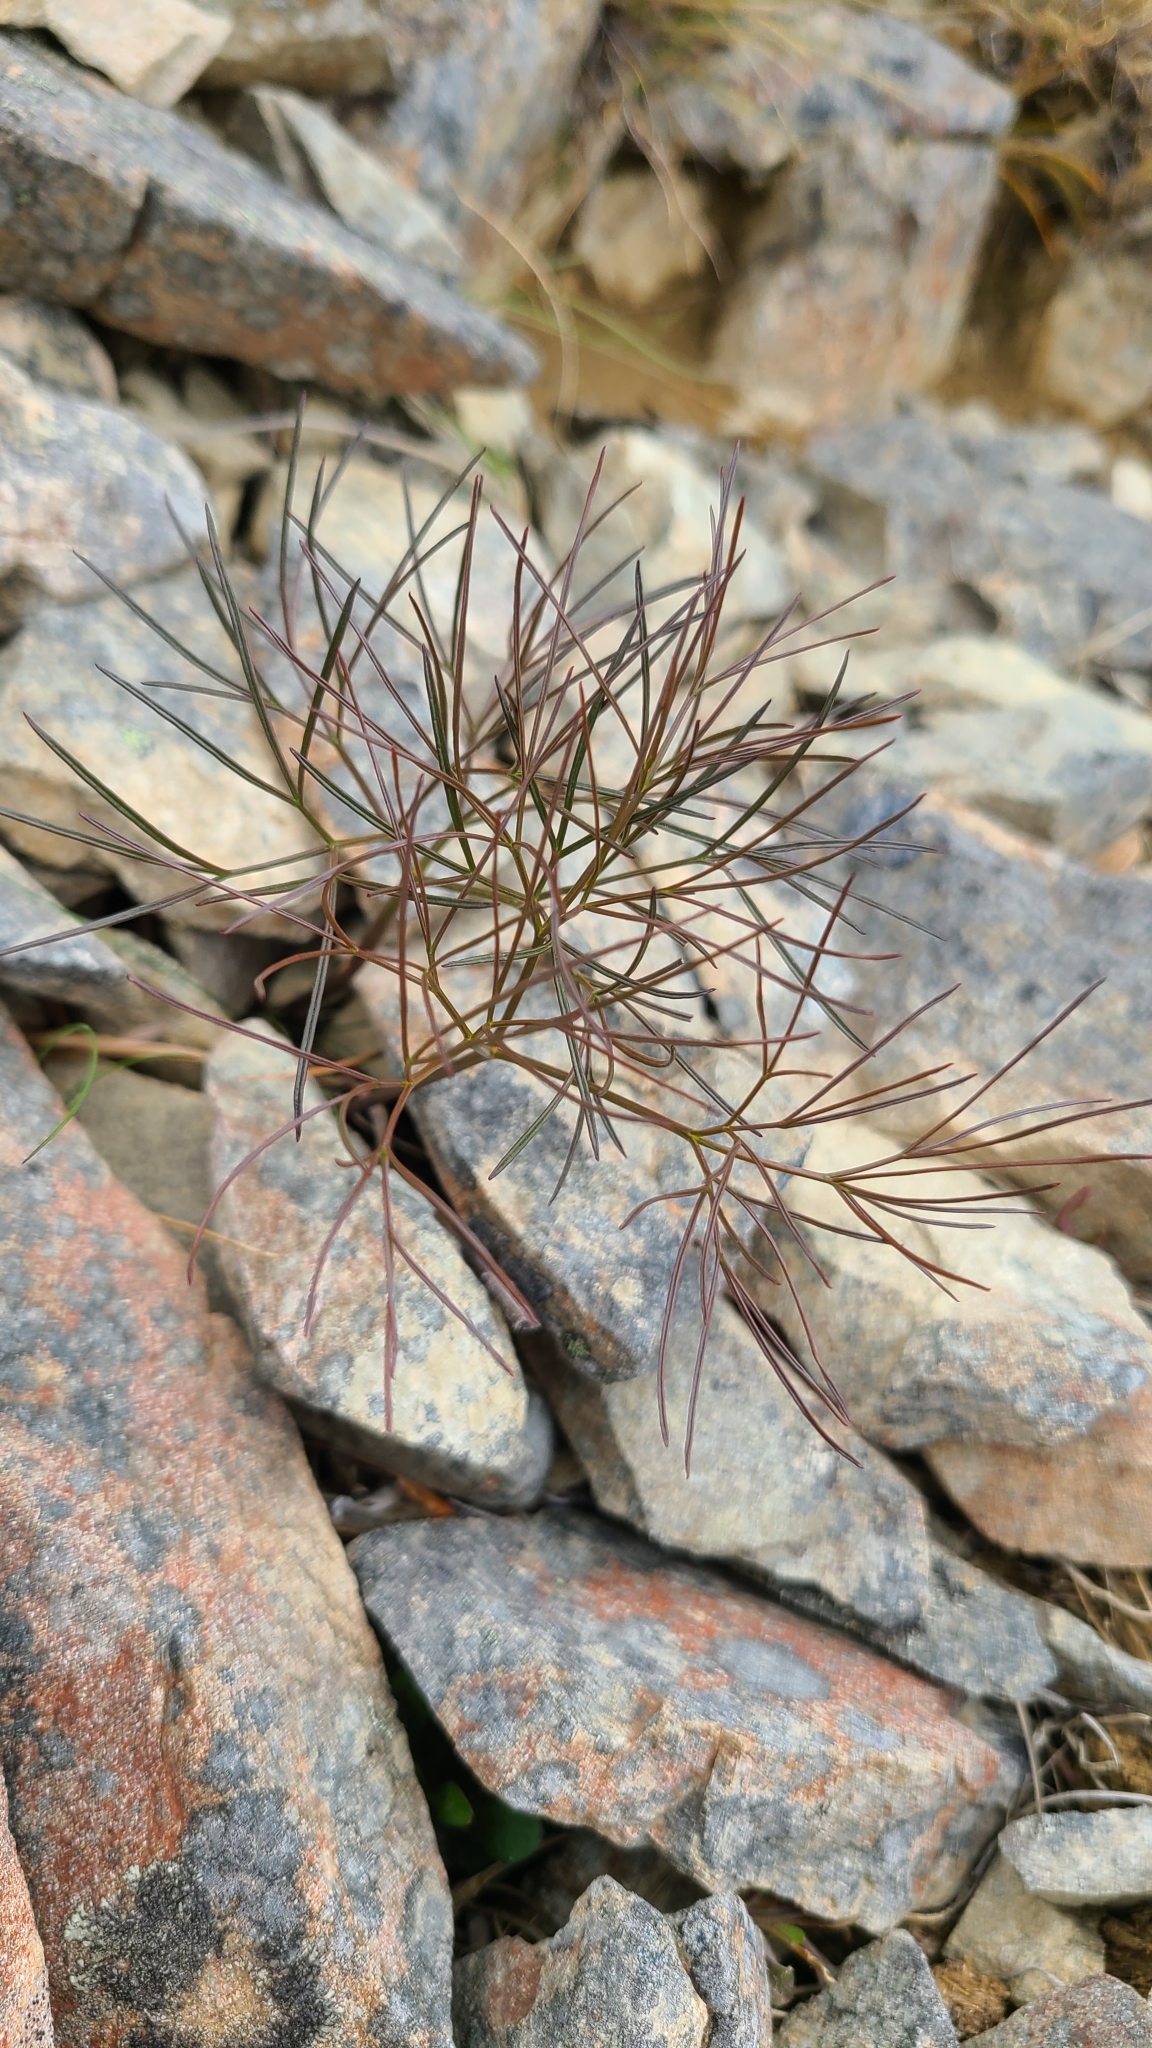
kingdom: Plantae
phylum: Tracheophyta
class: Magnoliopsida
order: Apiales
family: Apiaceae
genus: Anisotome
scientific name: Anisotome filifolia
